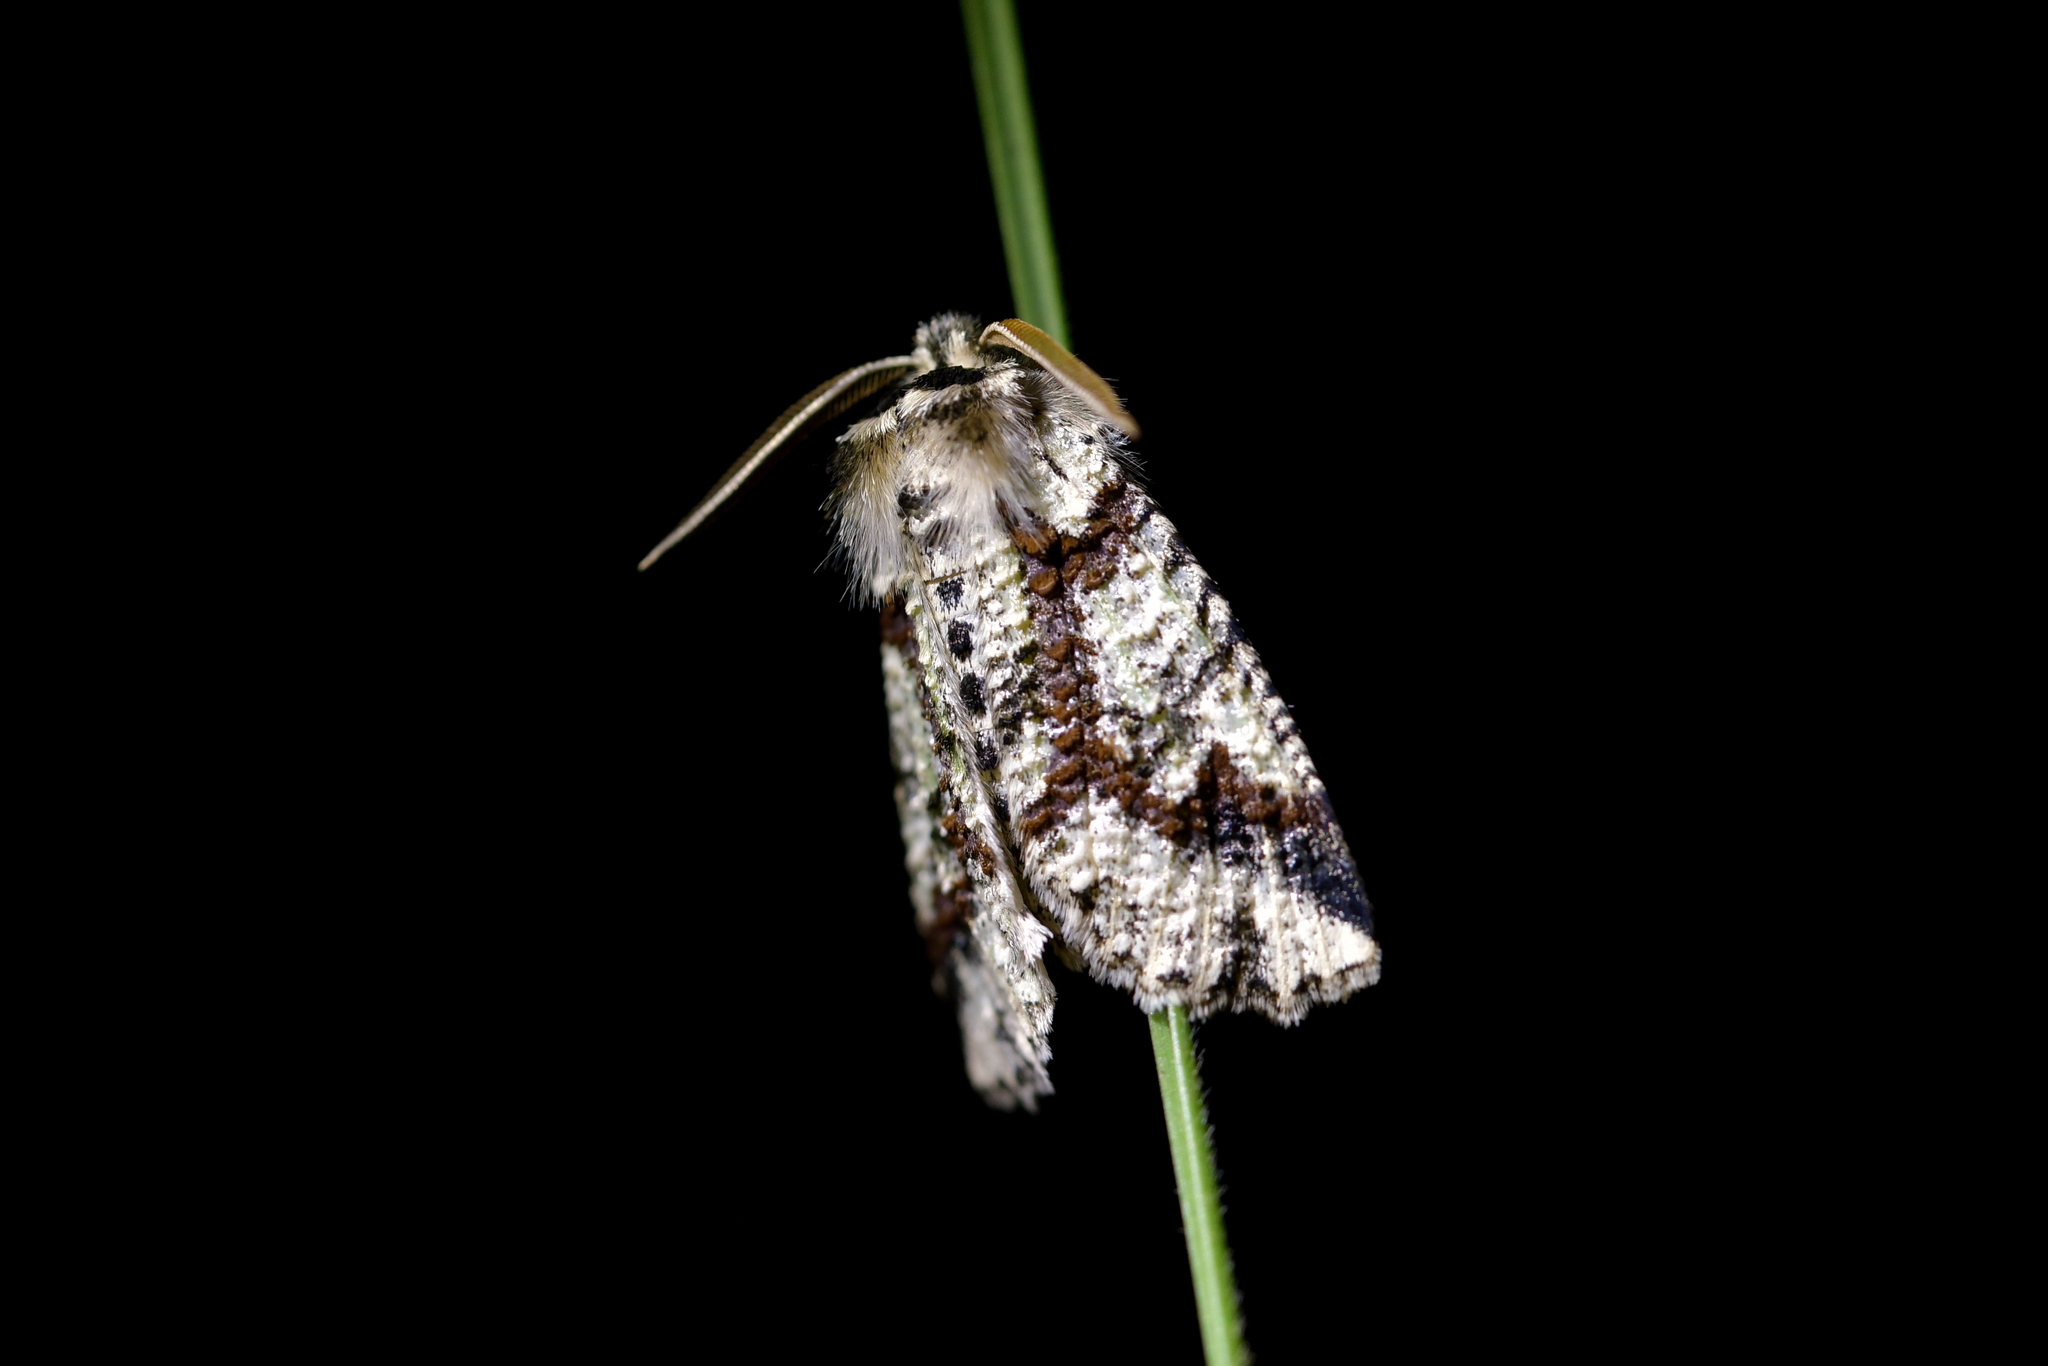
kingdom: Animalia
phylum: Arthropoda
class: Insecta
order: Lepidoptera
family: Geometridae
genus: Declana
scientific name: Declana floccosa
